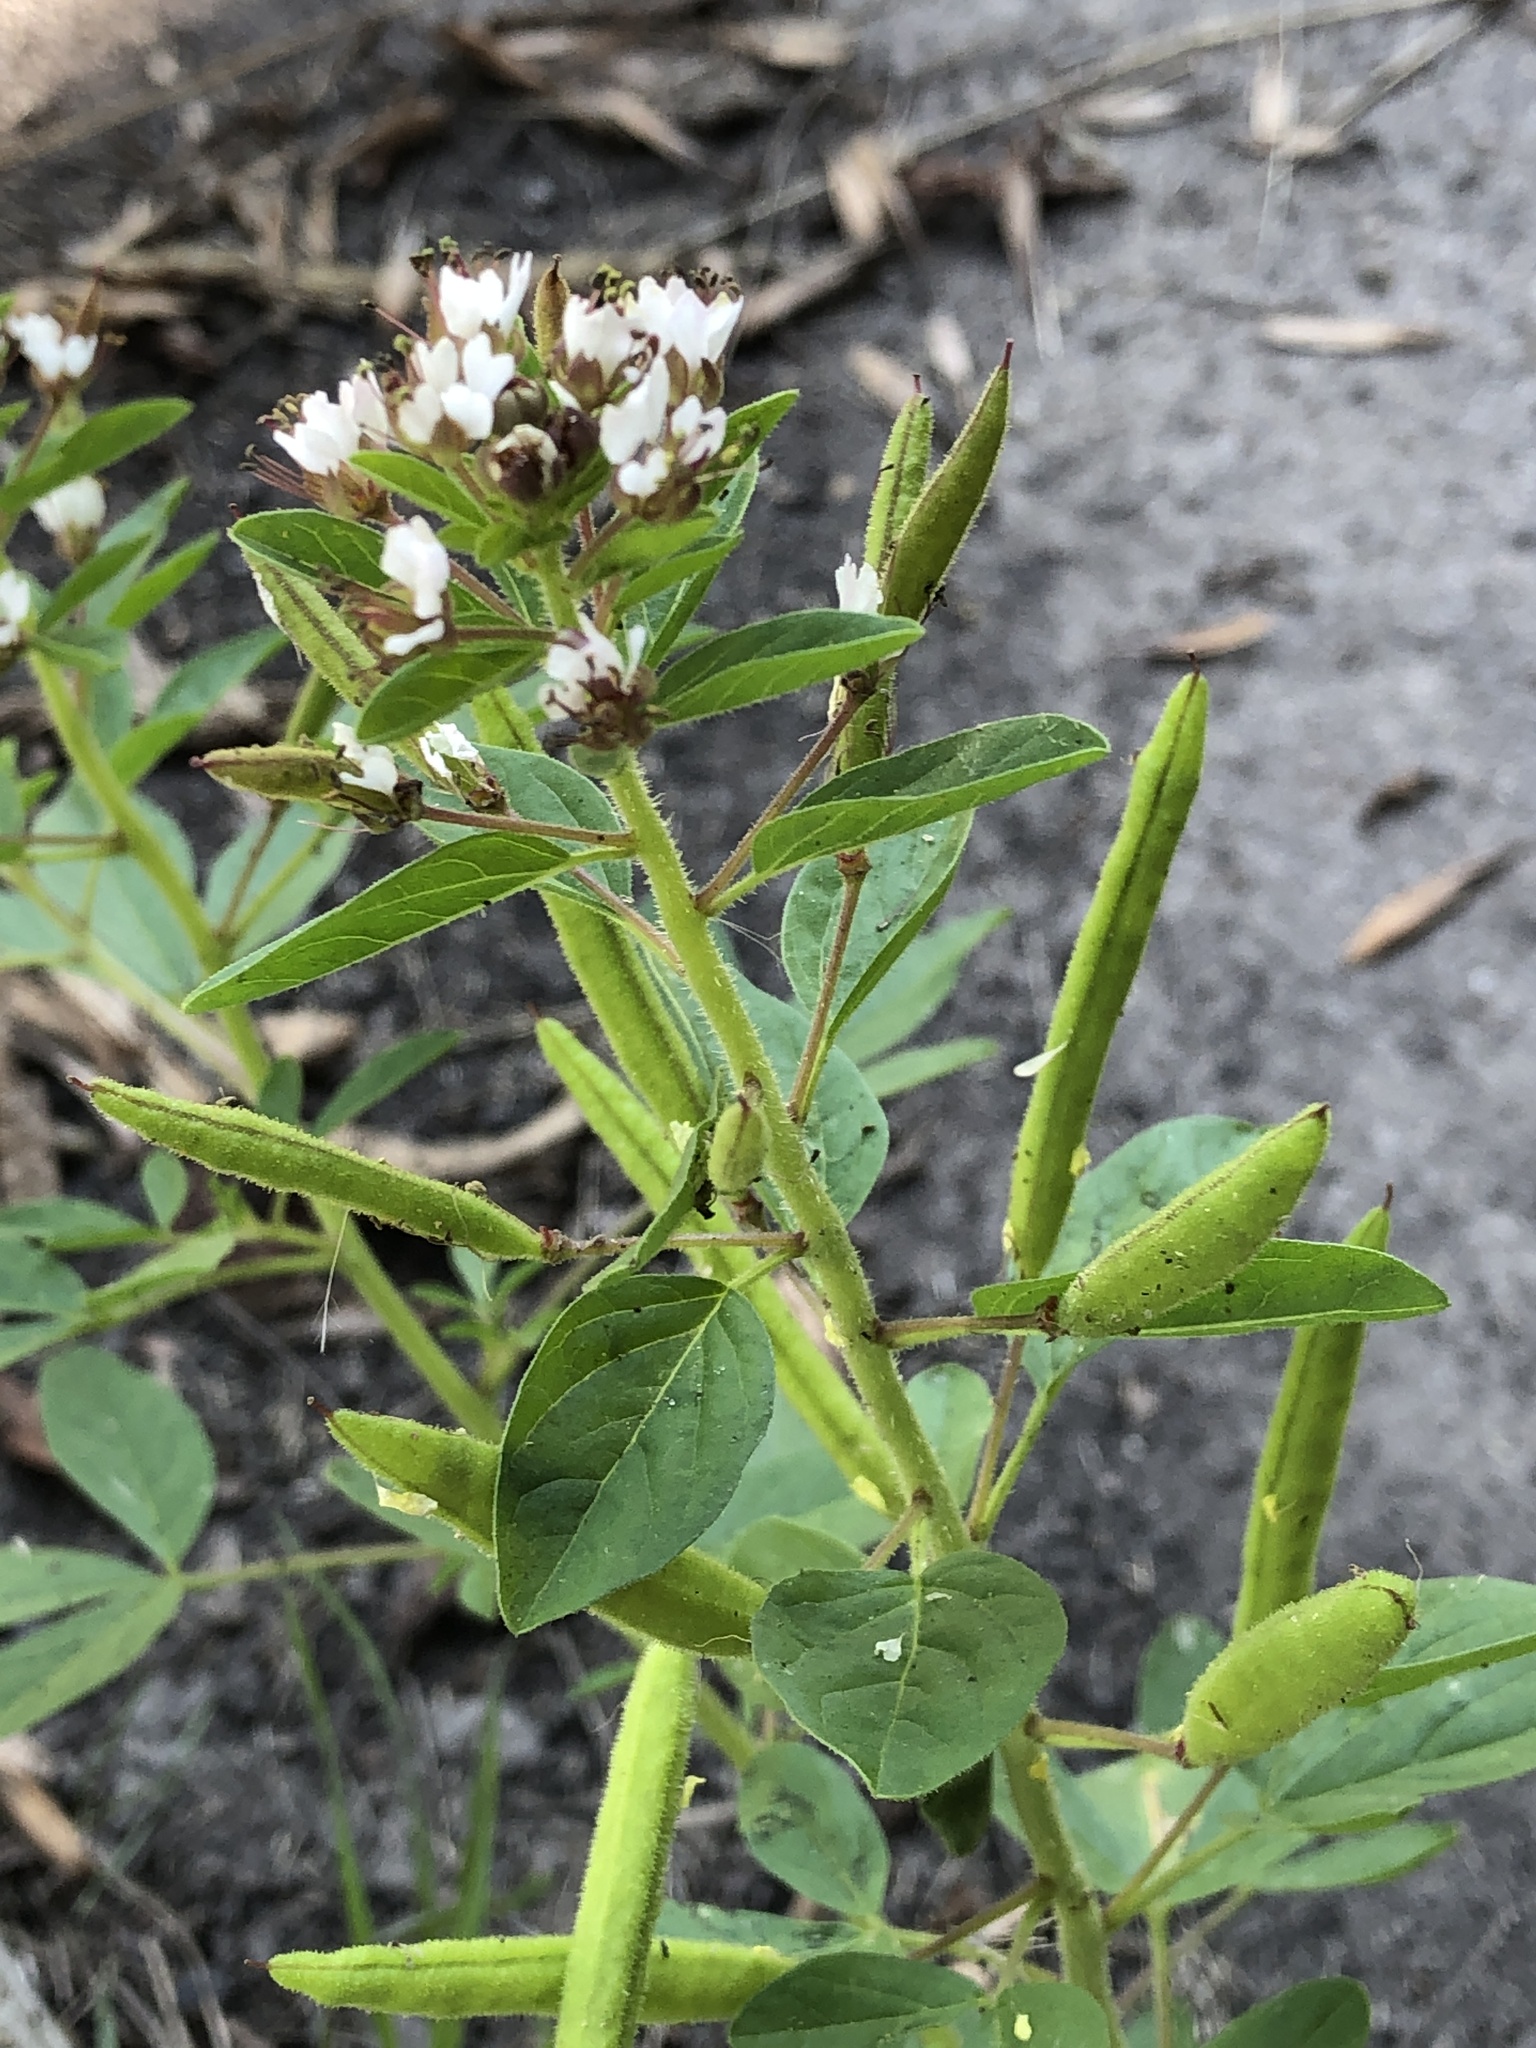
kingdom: Plantae
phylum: Tracheophyta
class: Magnoliopsida
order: Brassicales
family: Cleomaceae
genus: Polanisia
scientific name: Polanisia dodecandra
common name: Clammyweed
